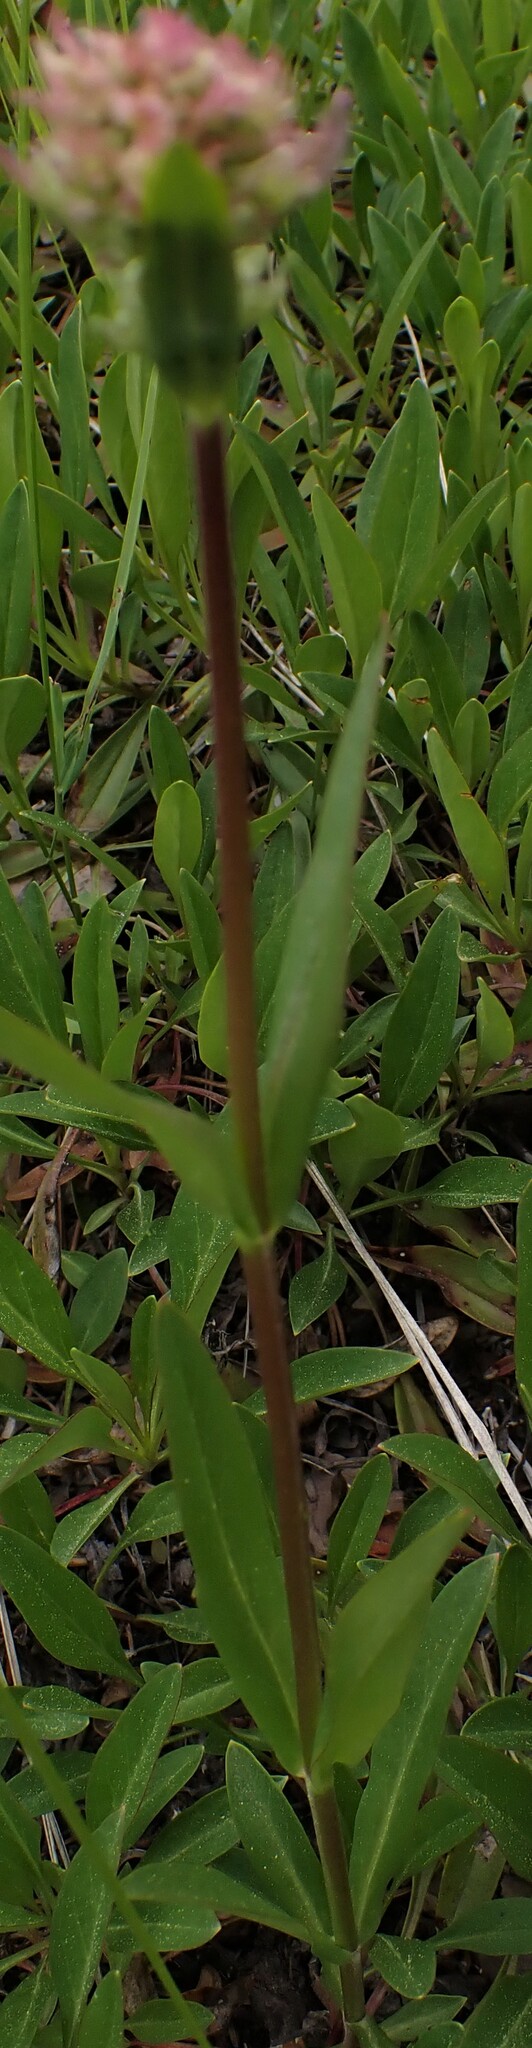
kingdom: Plantae
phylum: Tracheophyta
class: Magnoliopsida
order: Lamiales
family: Plantaginaceae
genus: Penstemon
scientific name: Penstemon confertus
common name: Lesser yellow beardtongue
